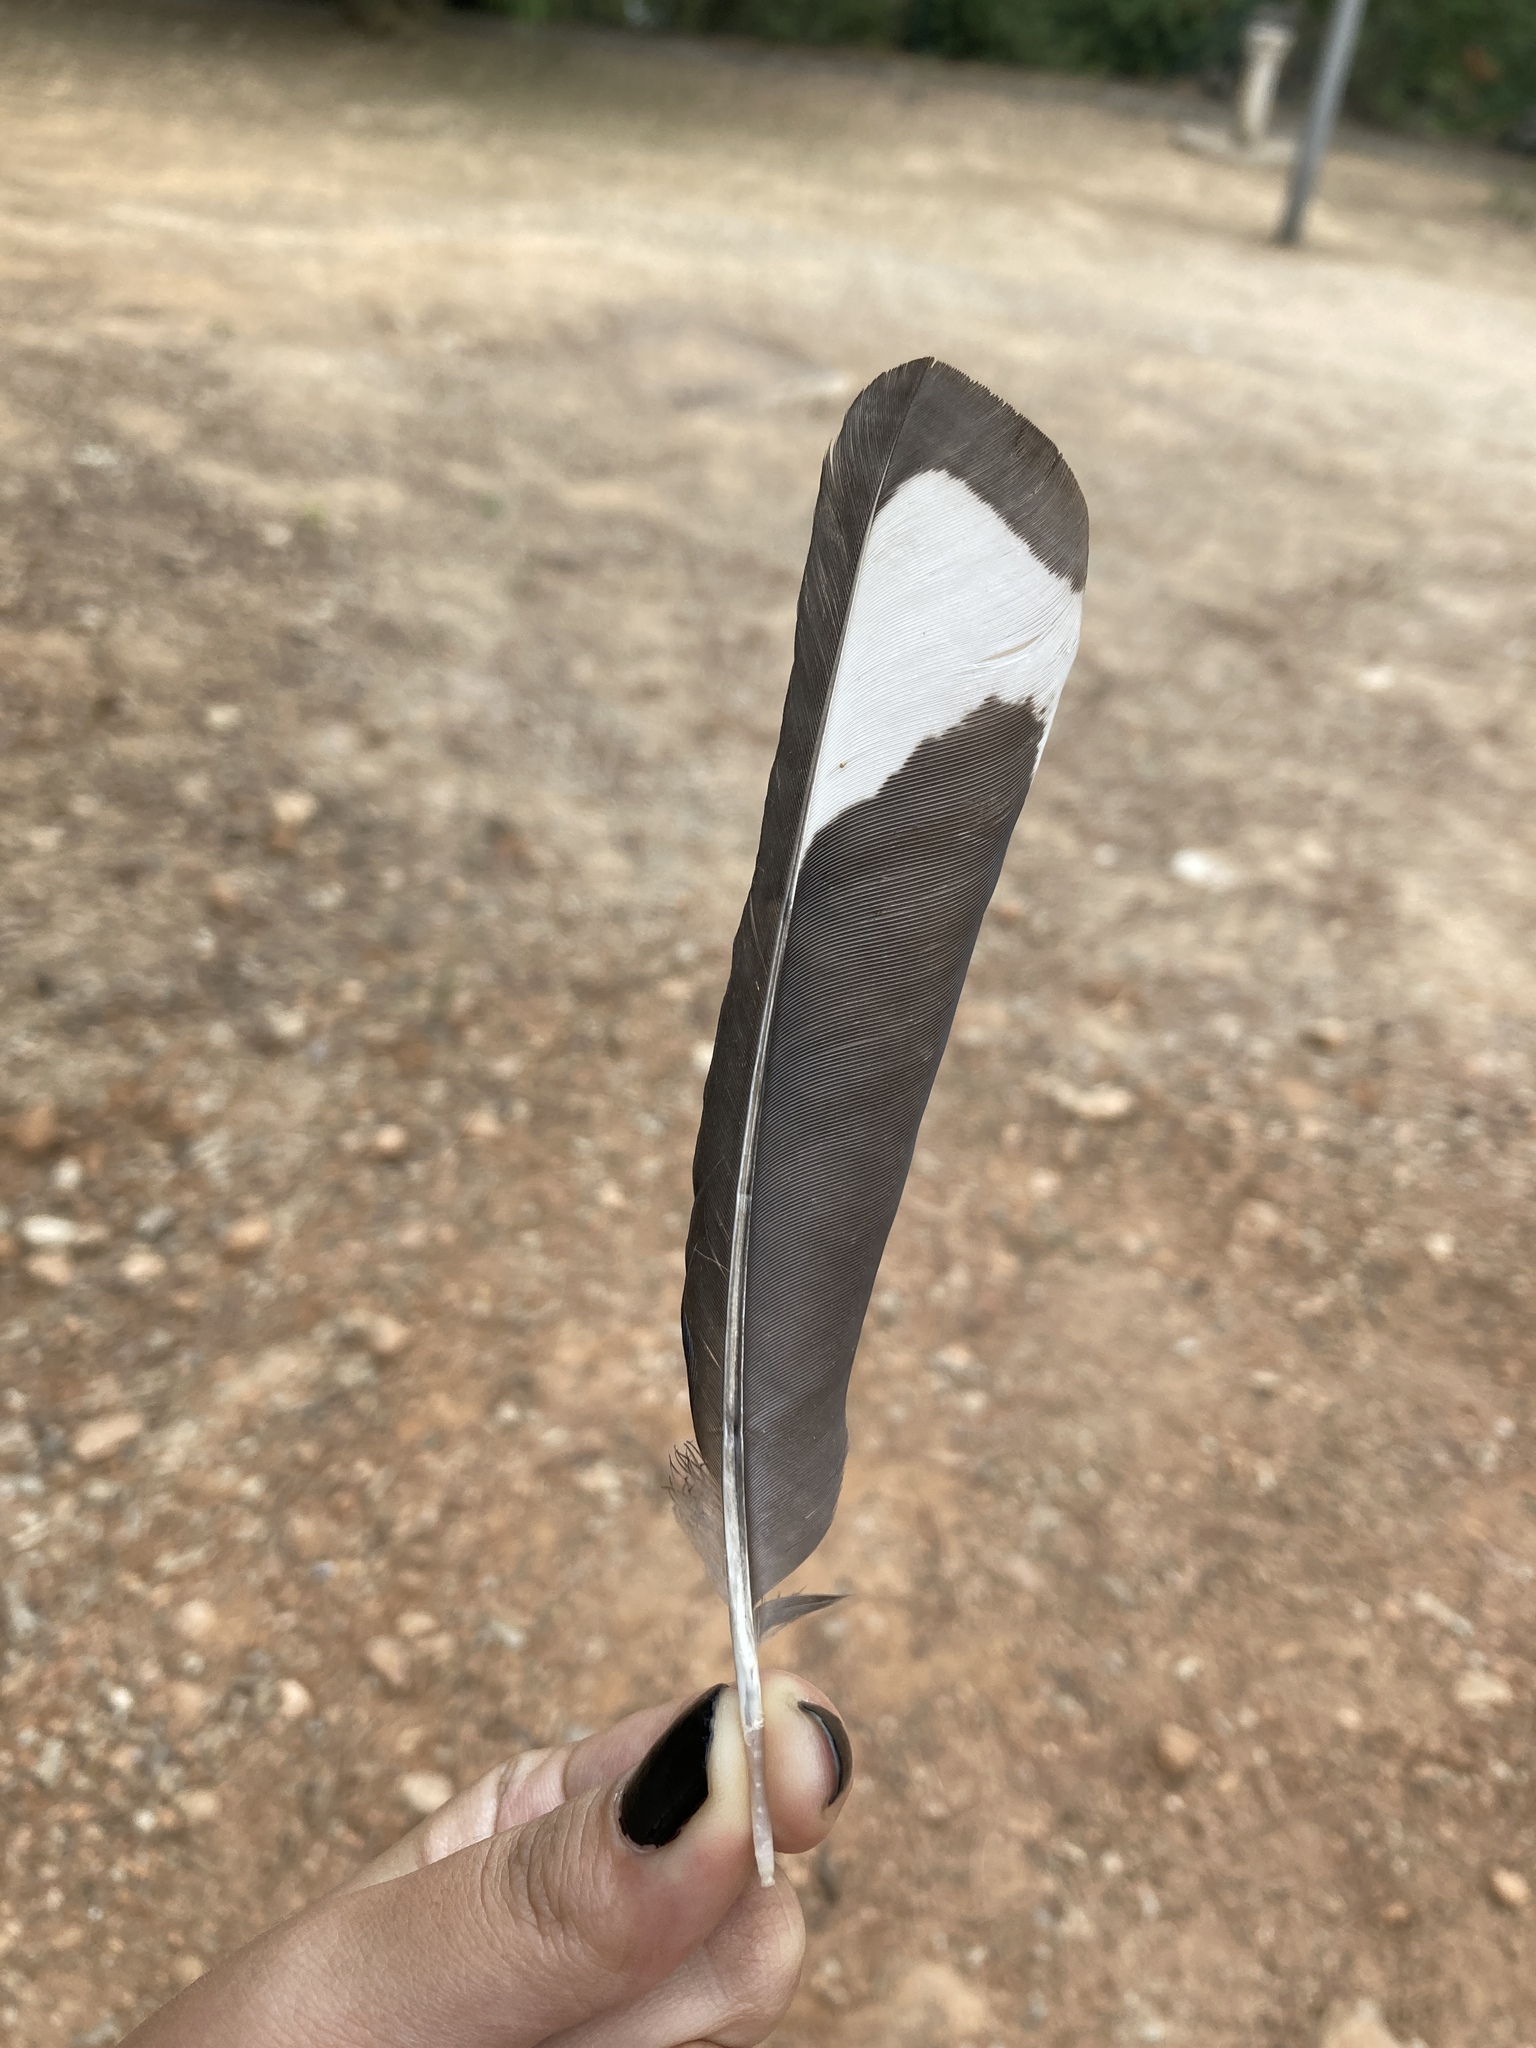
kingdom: Animalia
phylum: Chordata
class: Aves
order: Passeriformes
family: Corvidae
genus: Pica
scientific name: Pica pica
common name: Eurasian magpie
